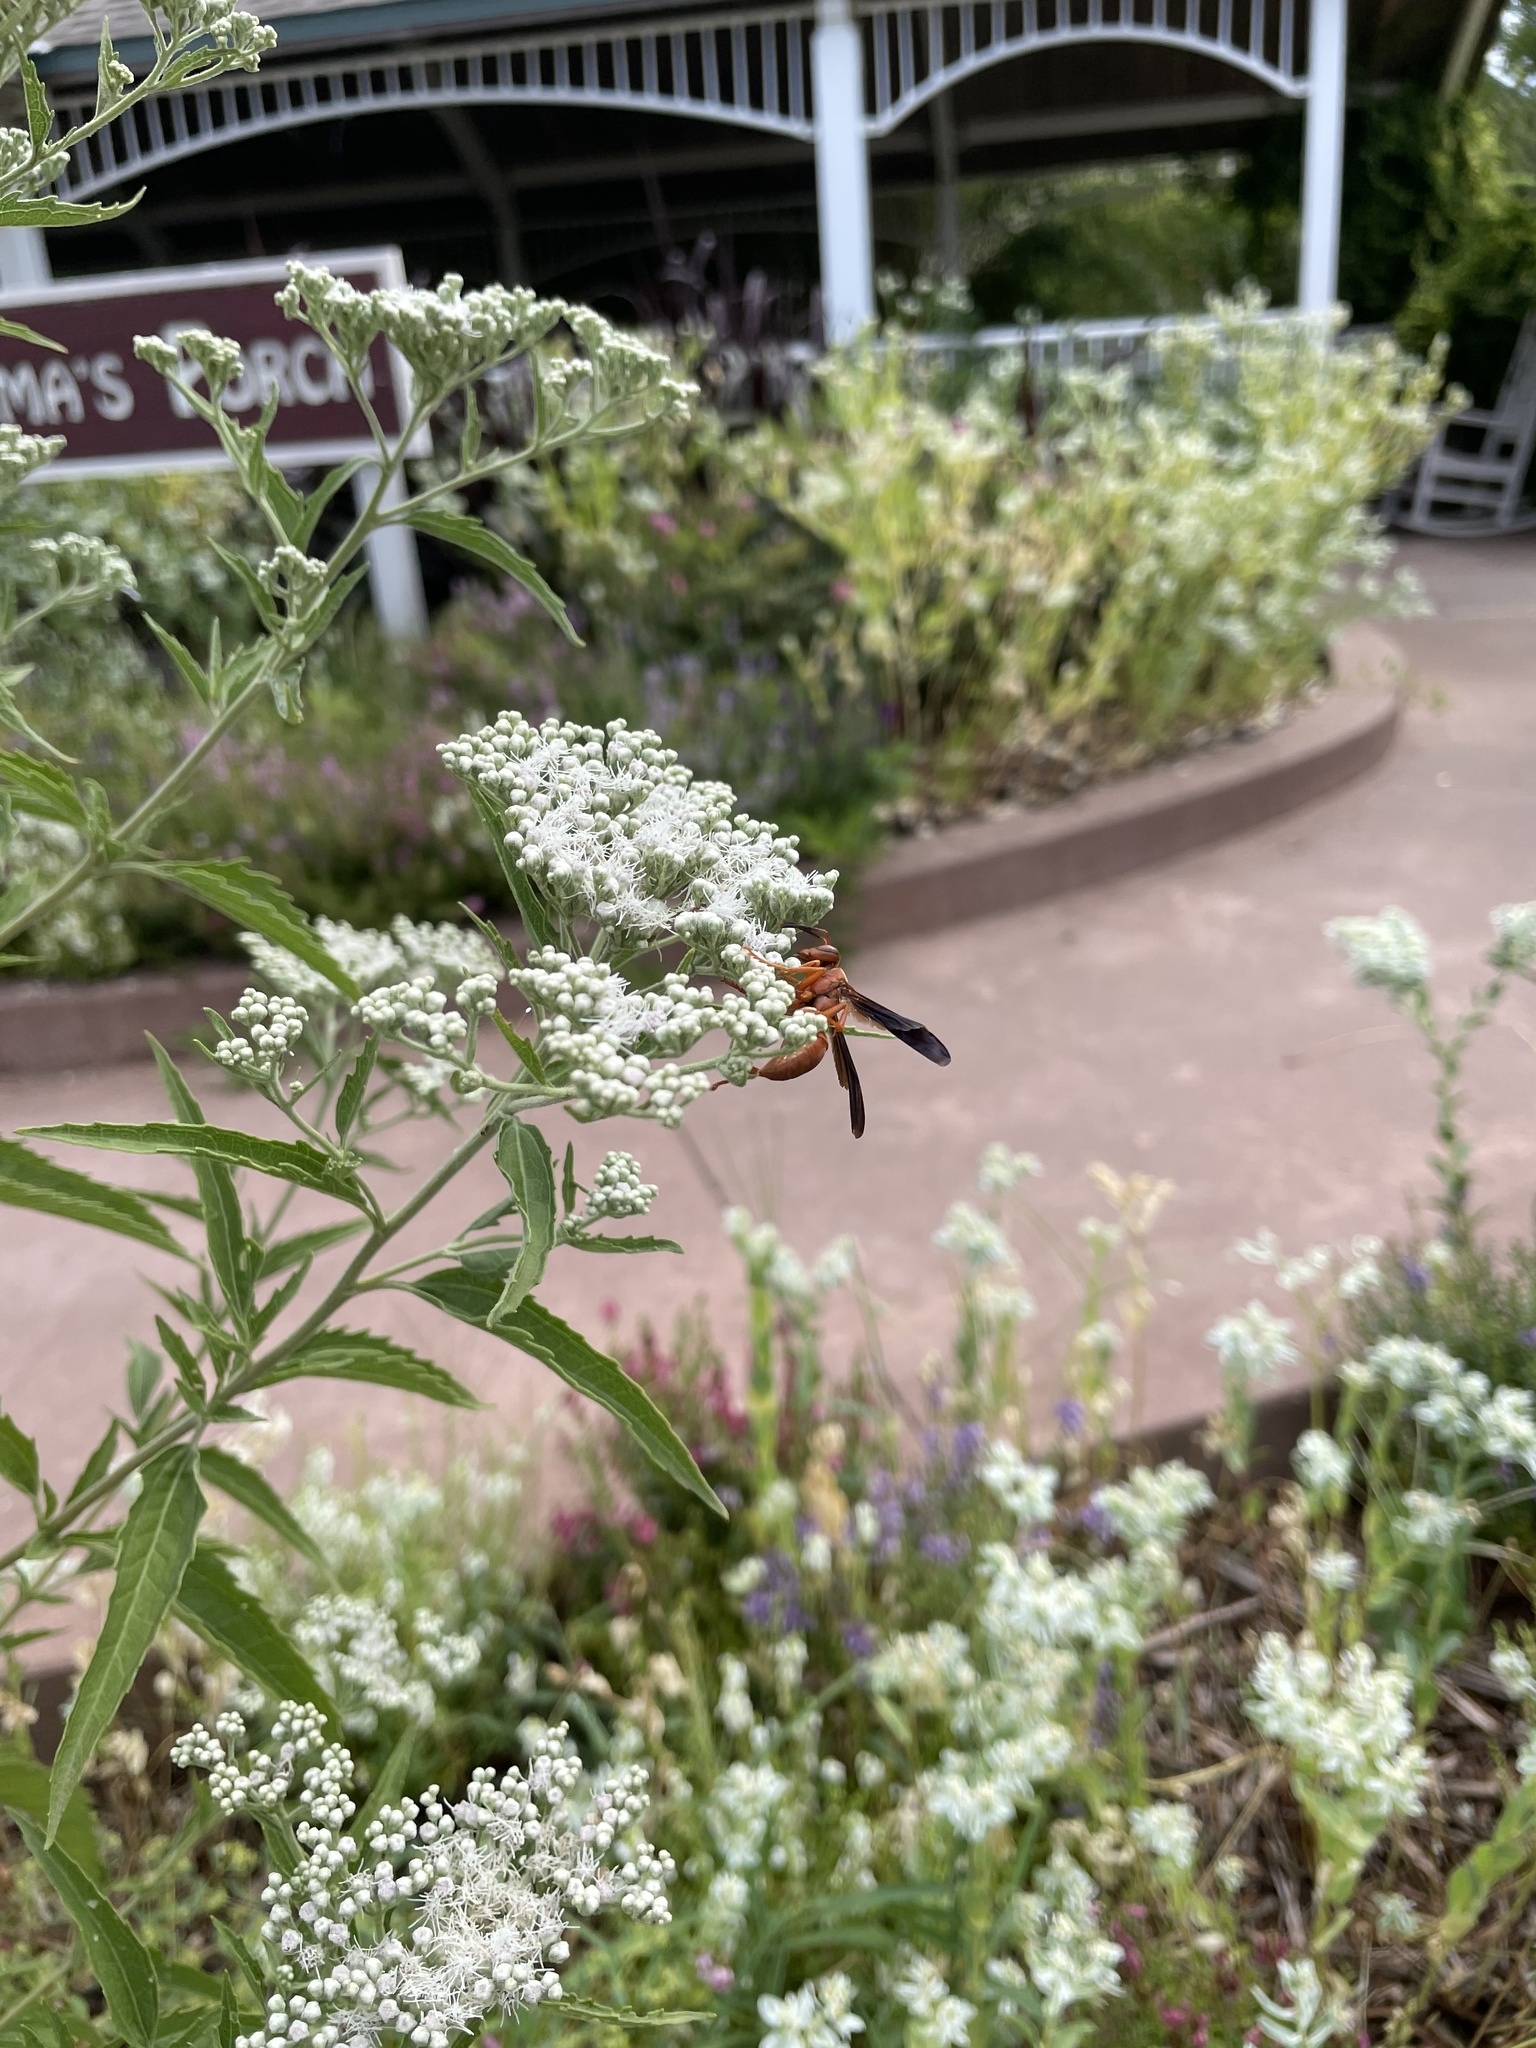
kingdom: Animalia
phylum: Arthropoda
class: Insecta
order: Hymenoptera
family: Vespidae
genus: Fuscopolistes
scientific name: Fuscopolistes
